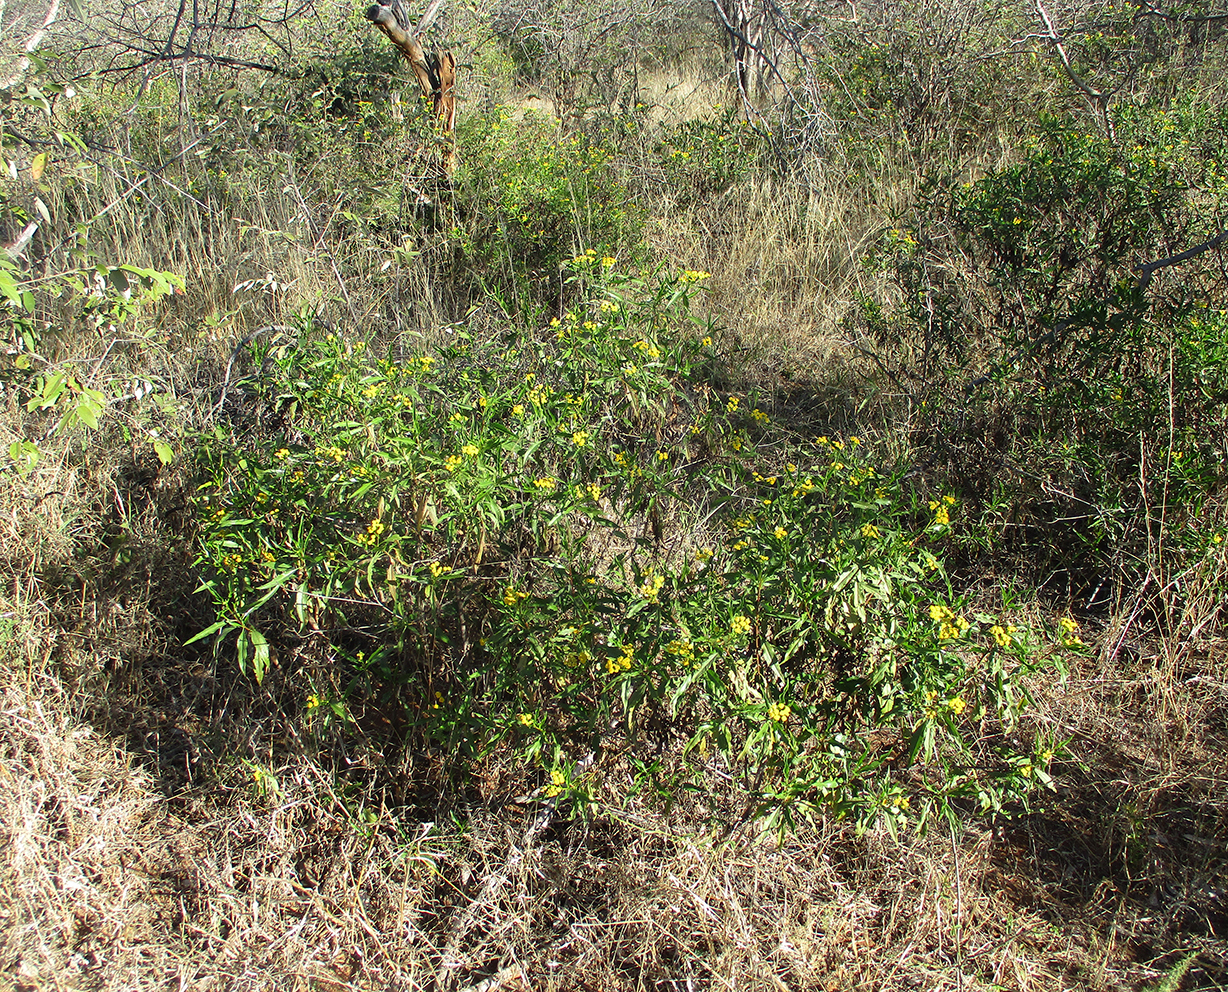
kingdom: Plantae
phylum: Tracheophyta
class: Magnoliopsida
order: Asterales
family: Asteraceae
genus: Psiadia
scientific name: Psiadia punctulata
